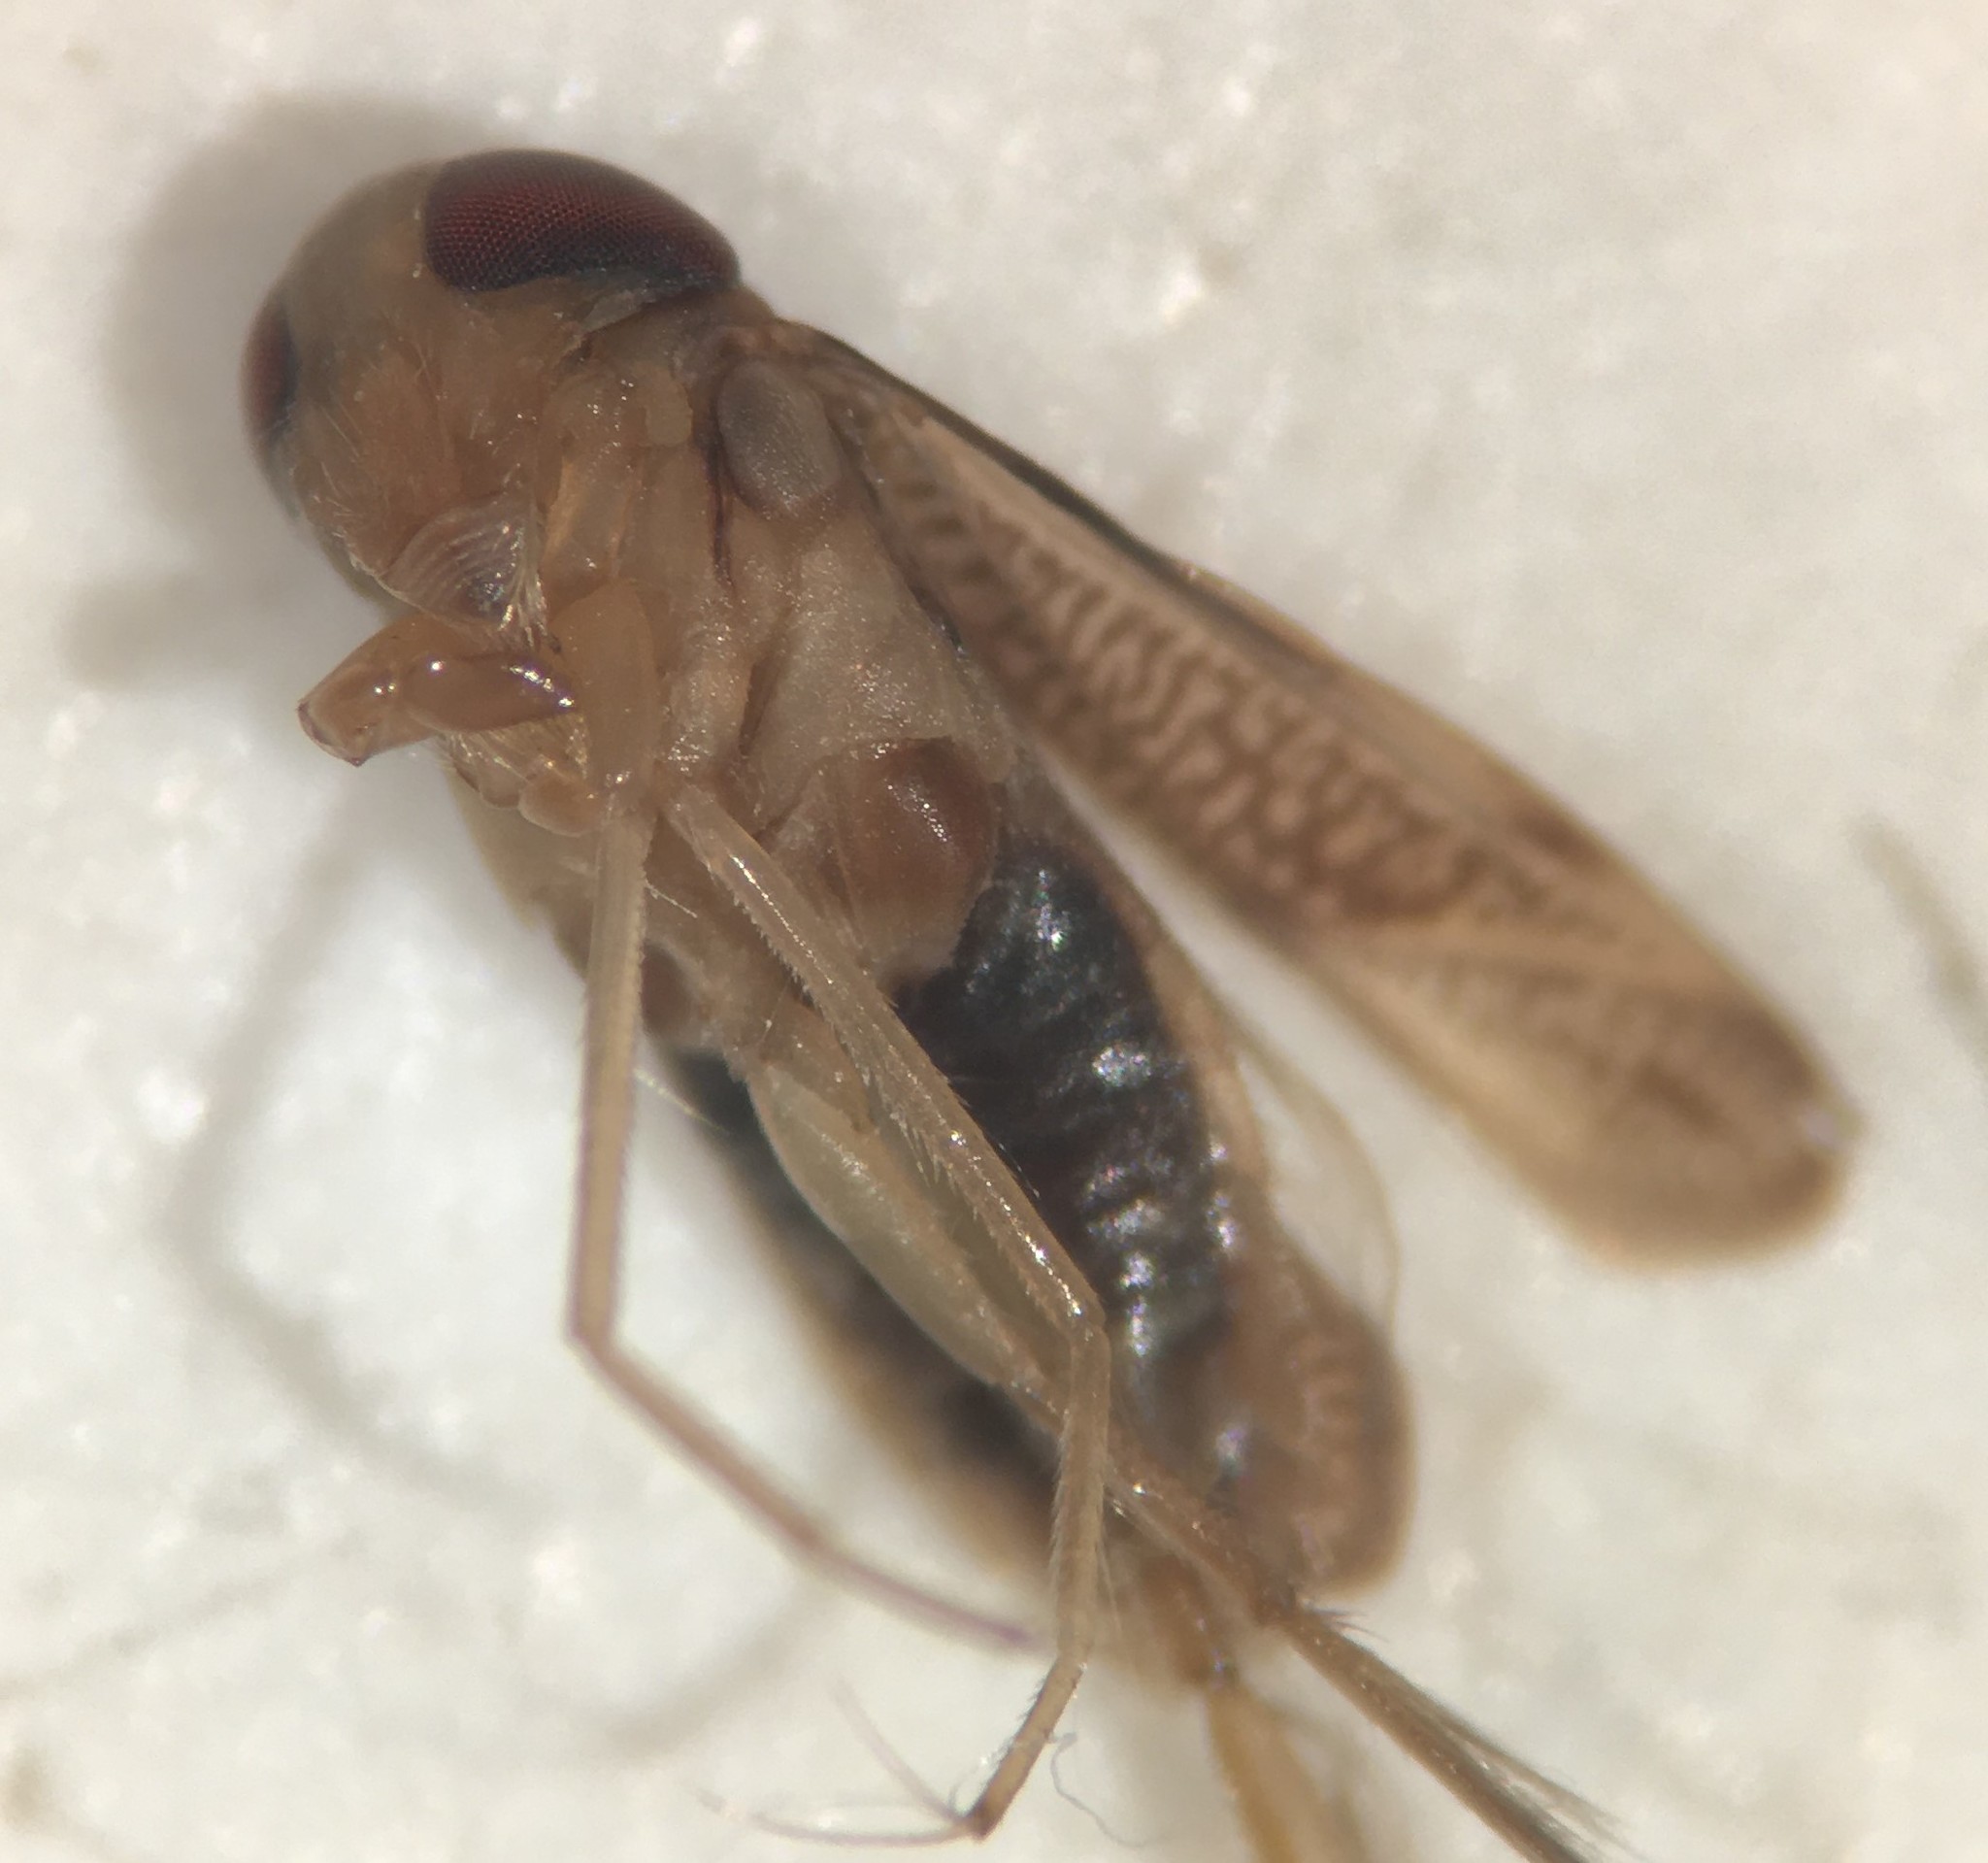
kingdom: Animalia
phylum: Arthropoda
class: Insecta
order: Hemiptera
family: Corixidae
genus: Sigara
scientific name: Sigara pectenata
